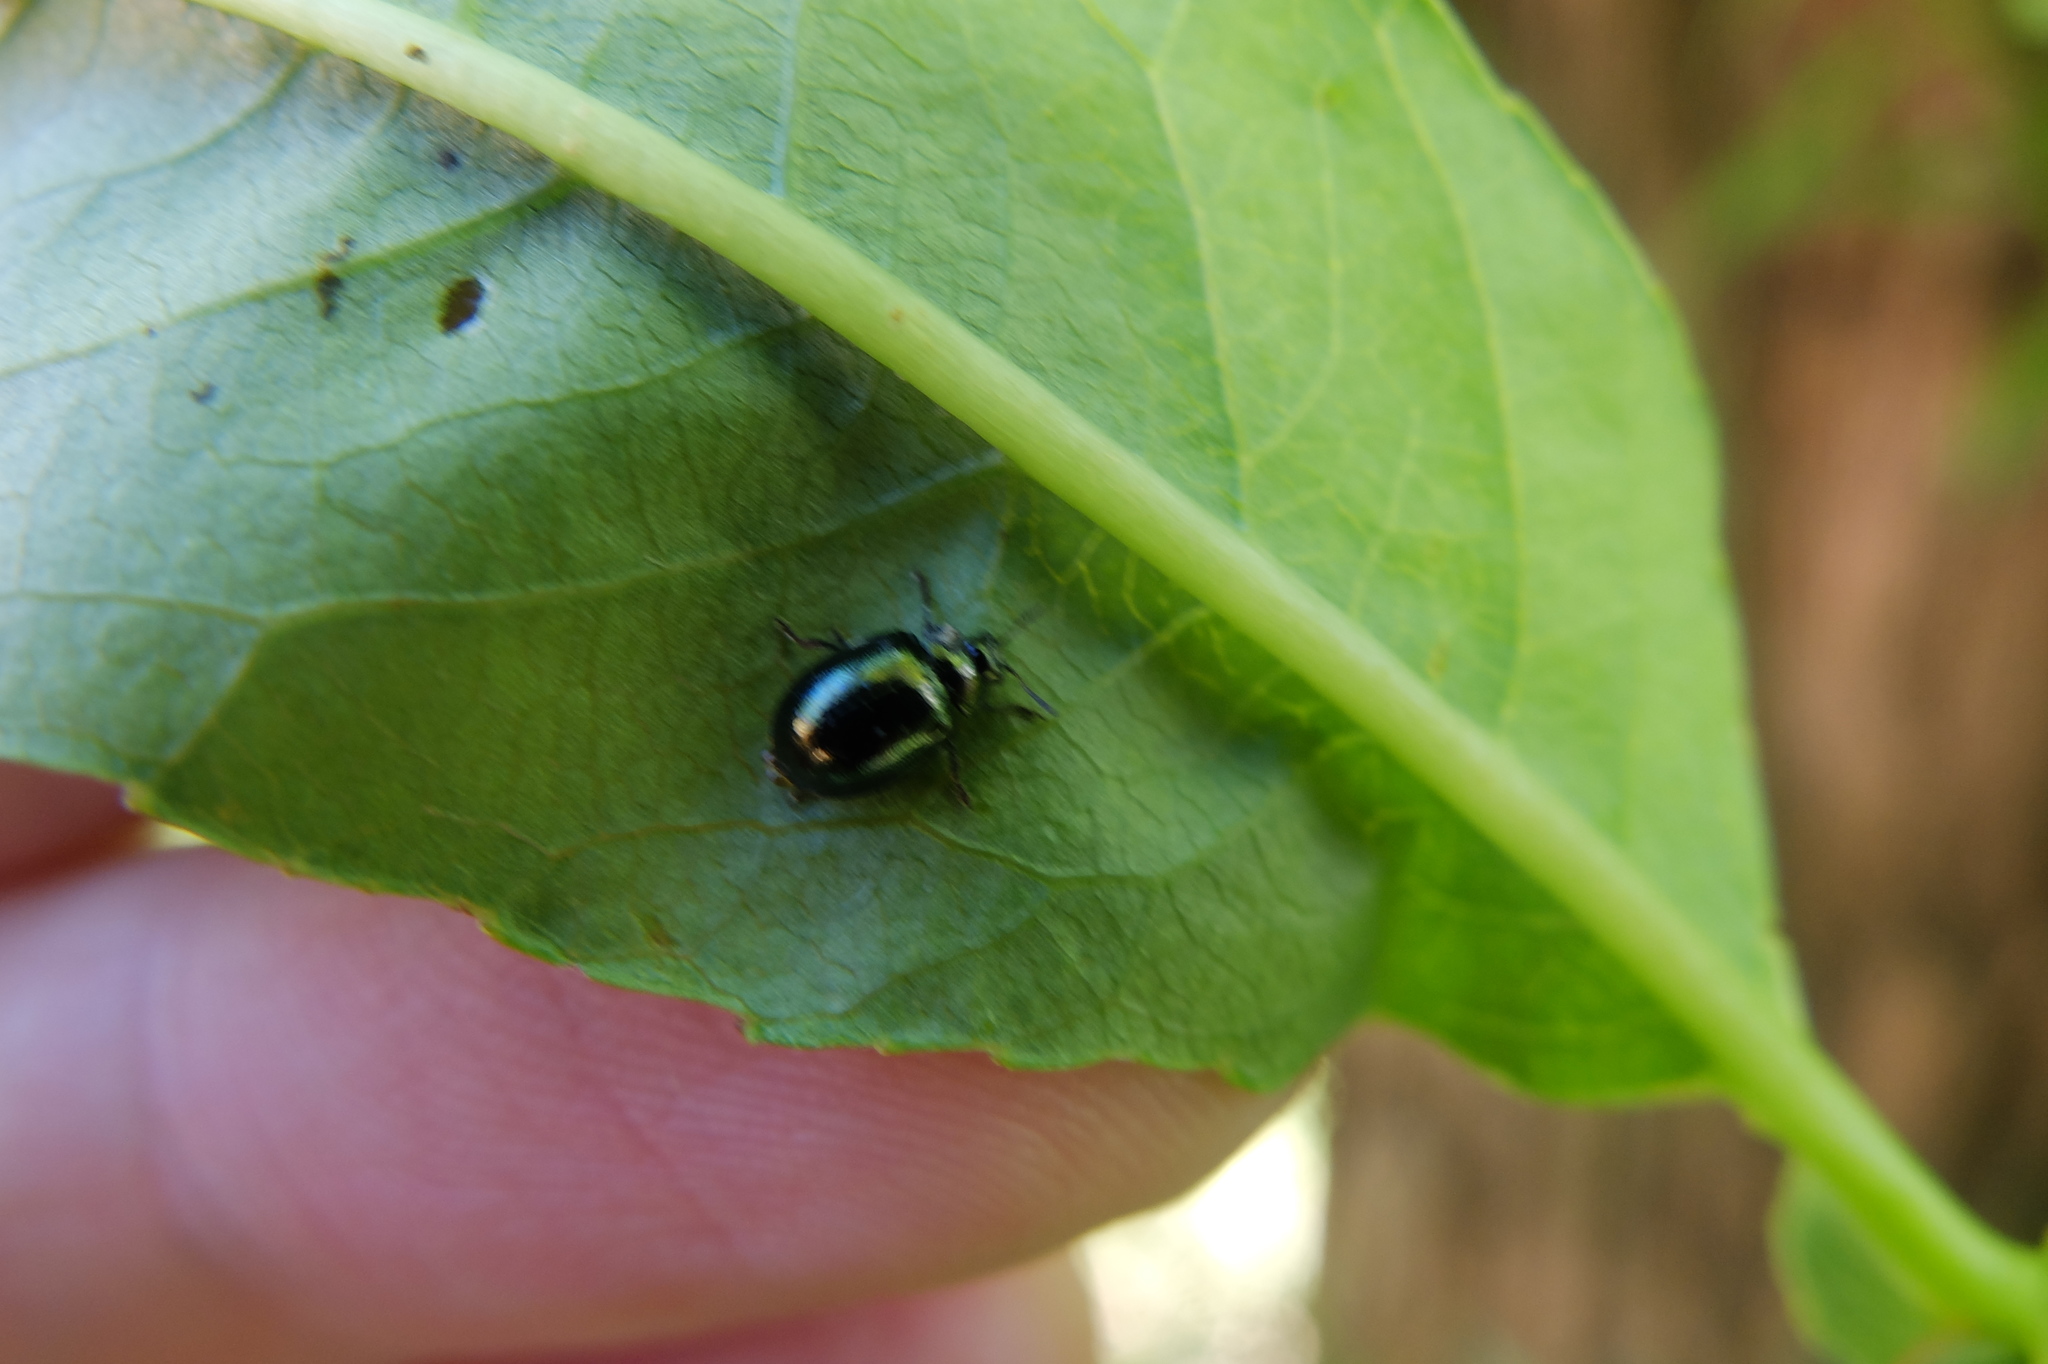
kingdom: Animalia
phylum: Arthropoda
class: Insecta
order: Coleoptera
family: Chrysomelidae
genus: Plagiodera
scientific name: Plagiodera versicolora
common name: Imported willow leaf beetle
